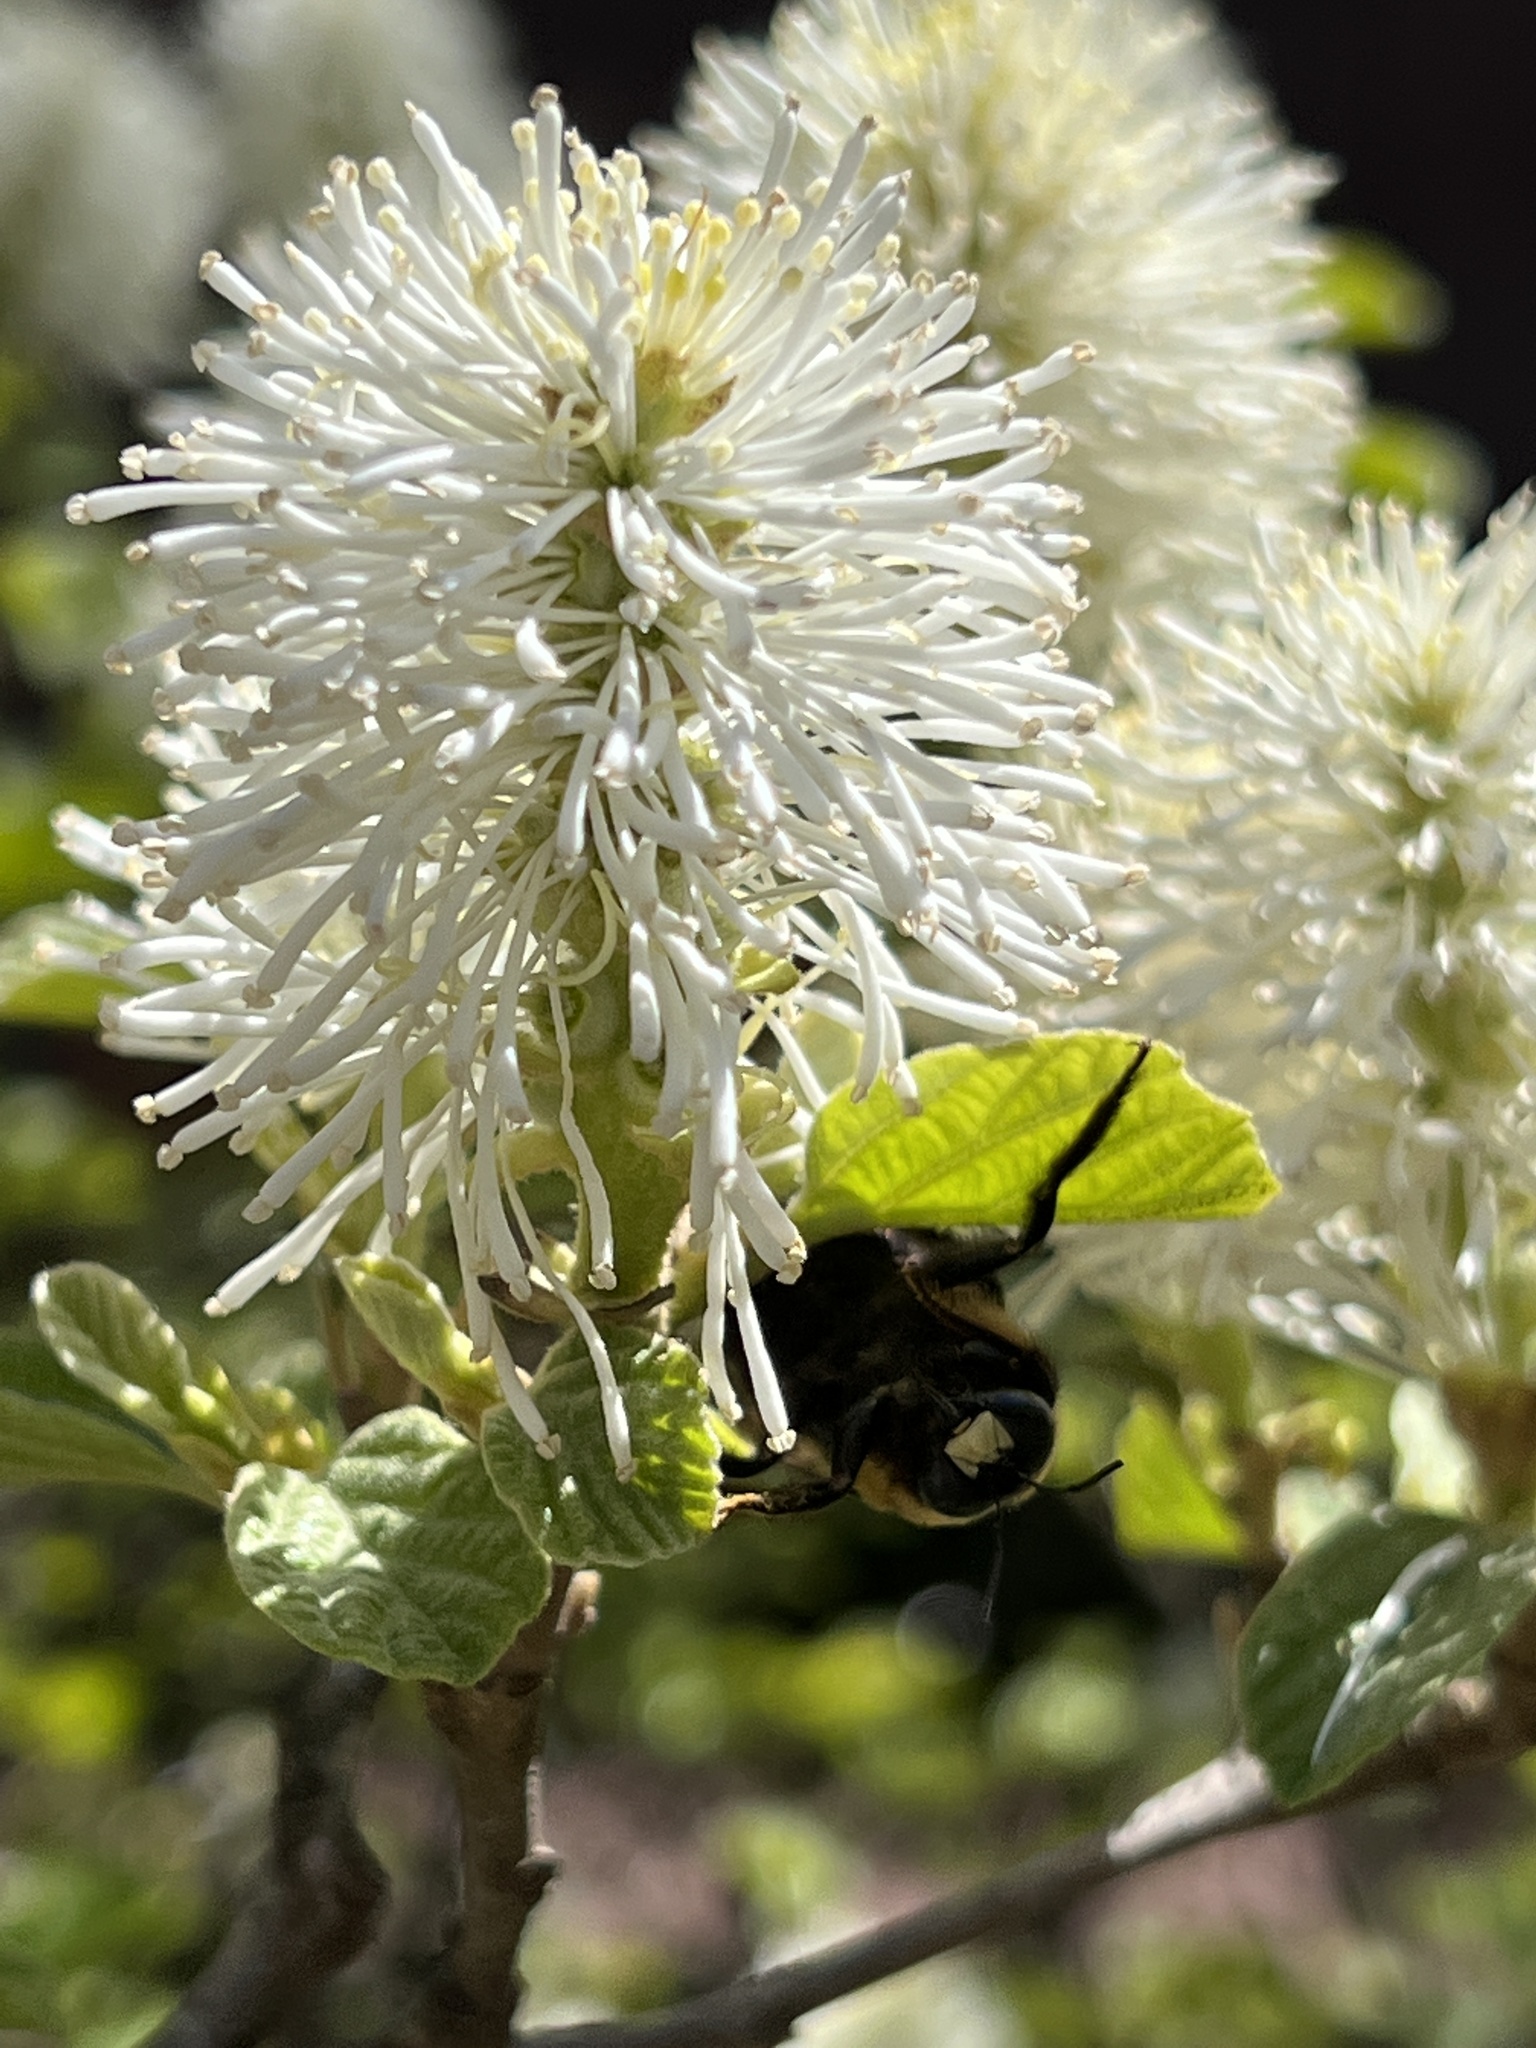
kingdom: Animalia
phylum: Arthropoda
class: Insecta
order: Hymenoptera
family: Apidae
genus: Xylocopa
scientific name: Xylocopa virginica
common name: Carpenter bee
